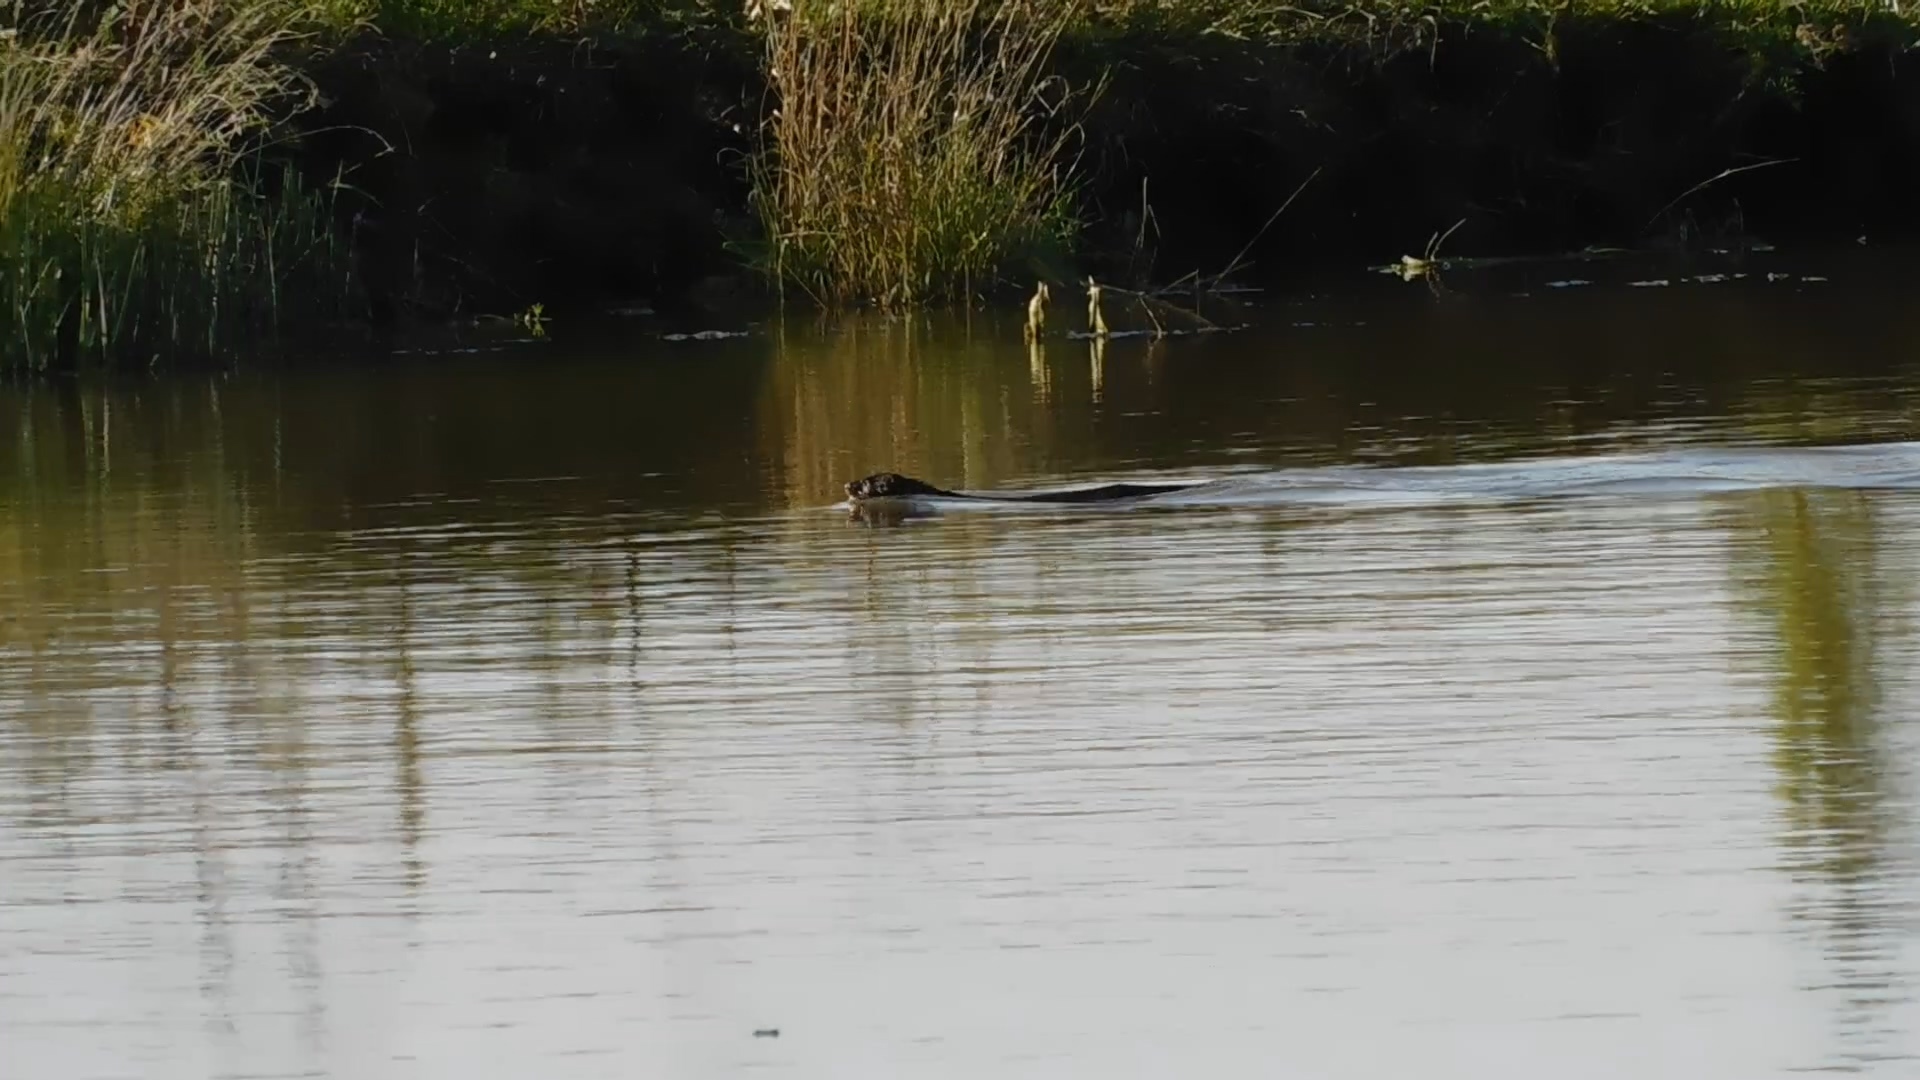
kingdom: Animalia
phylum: Chordata
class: Mammalia
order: Carnivora
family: Mustelidae
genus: Mustela
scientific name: Mustela
